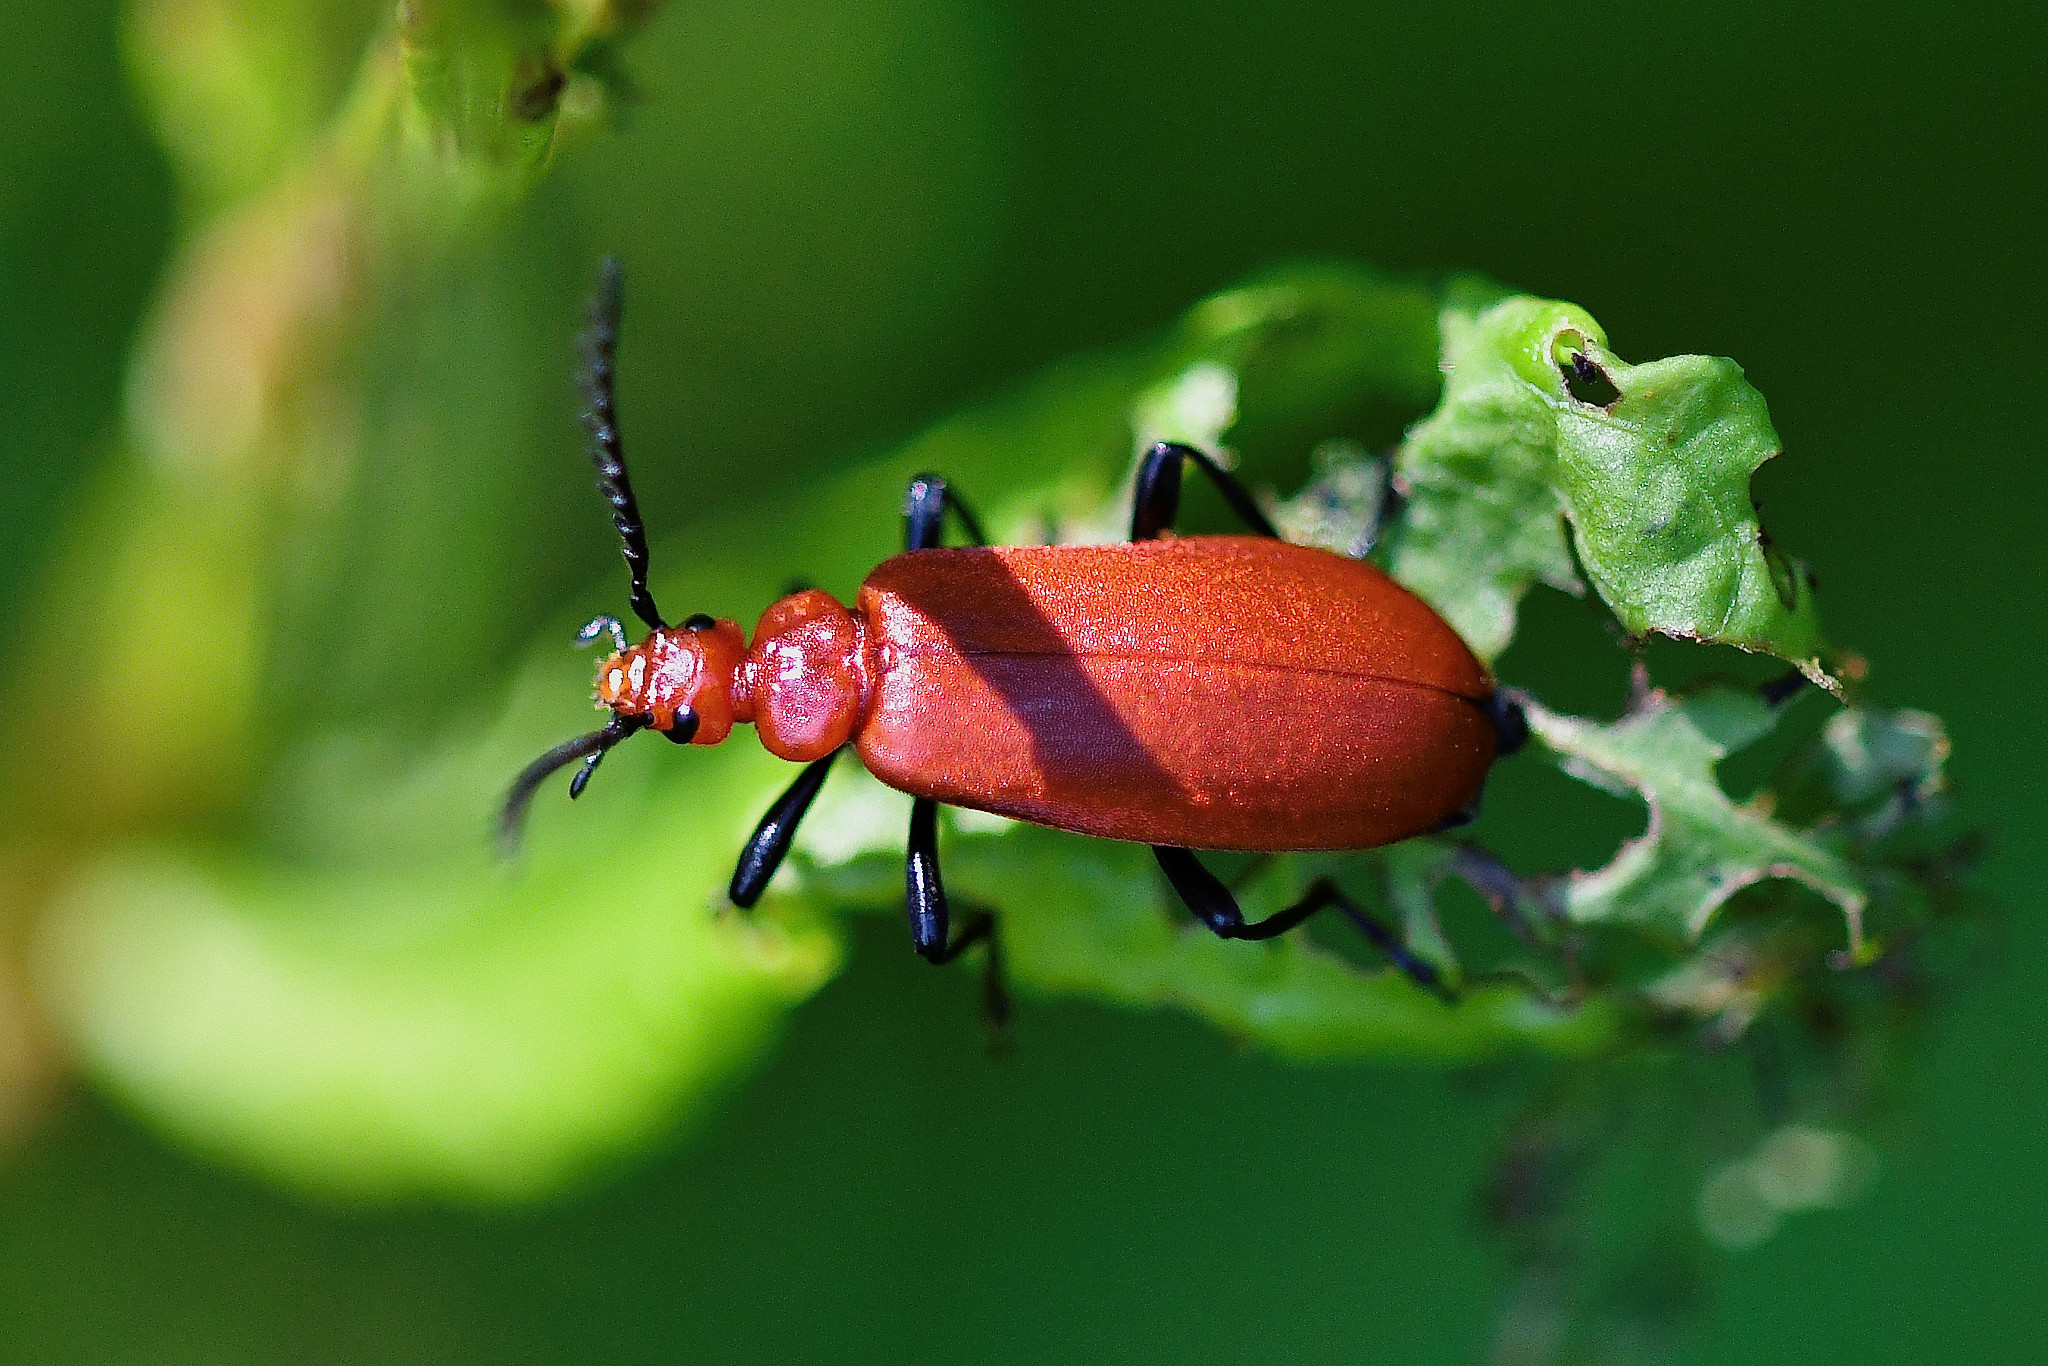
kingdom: Animalia
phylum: Arthropoda
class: Insecta
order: Coleoptera
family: Pyrochroidae
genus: Pyrochroa
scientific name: Pyrochroa serraticornis
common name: Red-headed cardinal beetle
